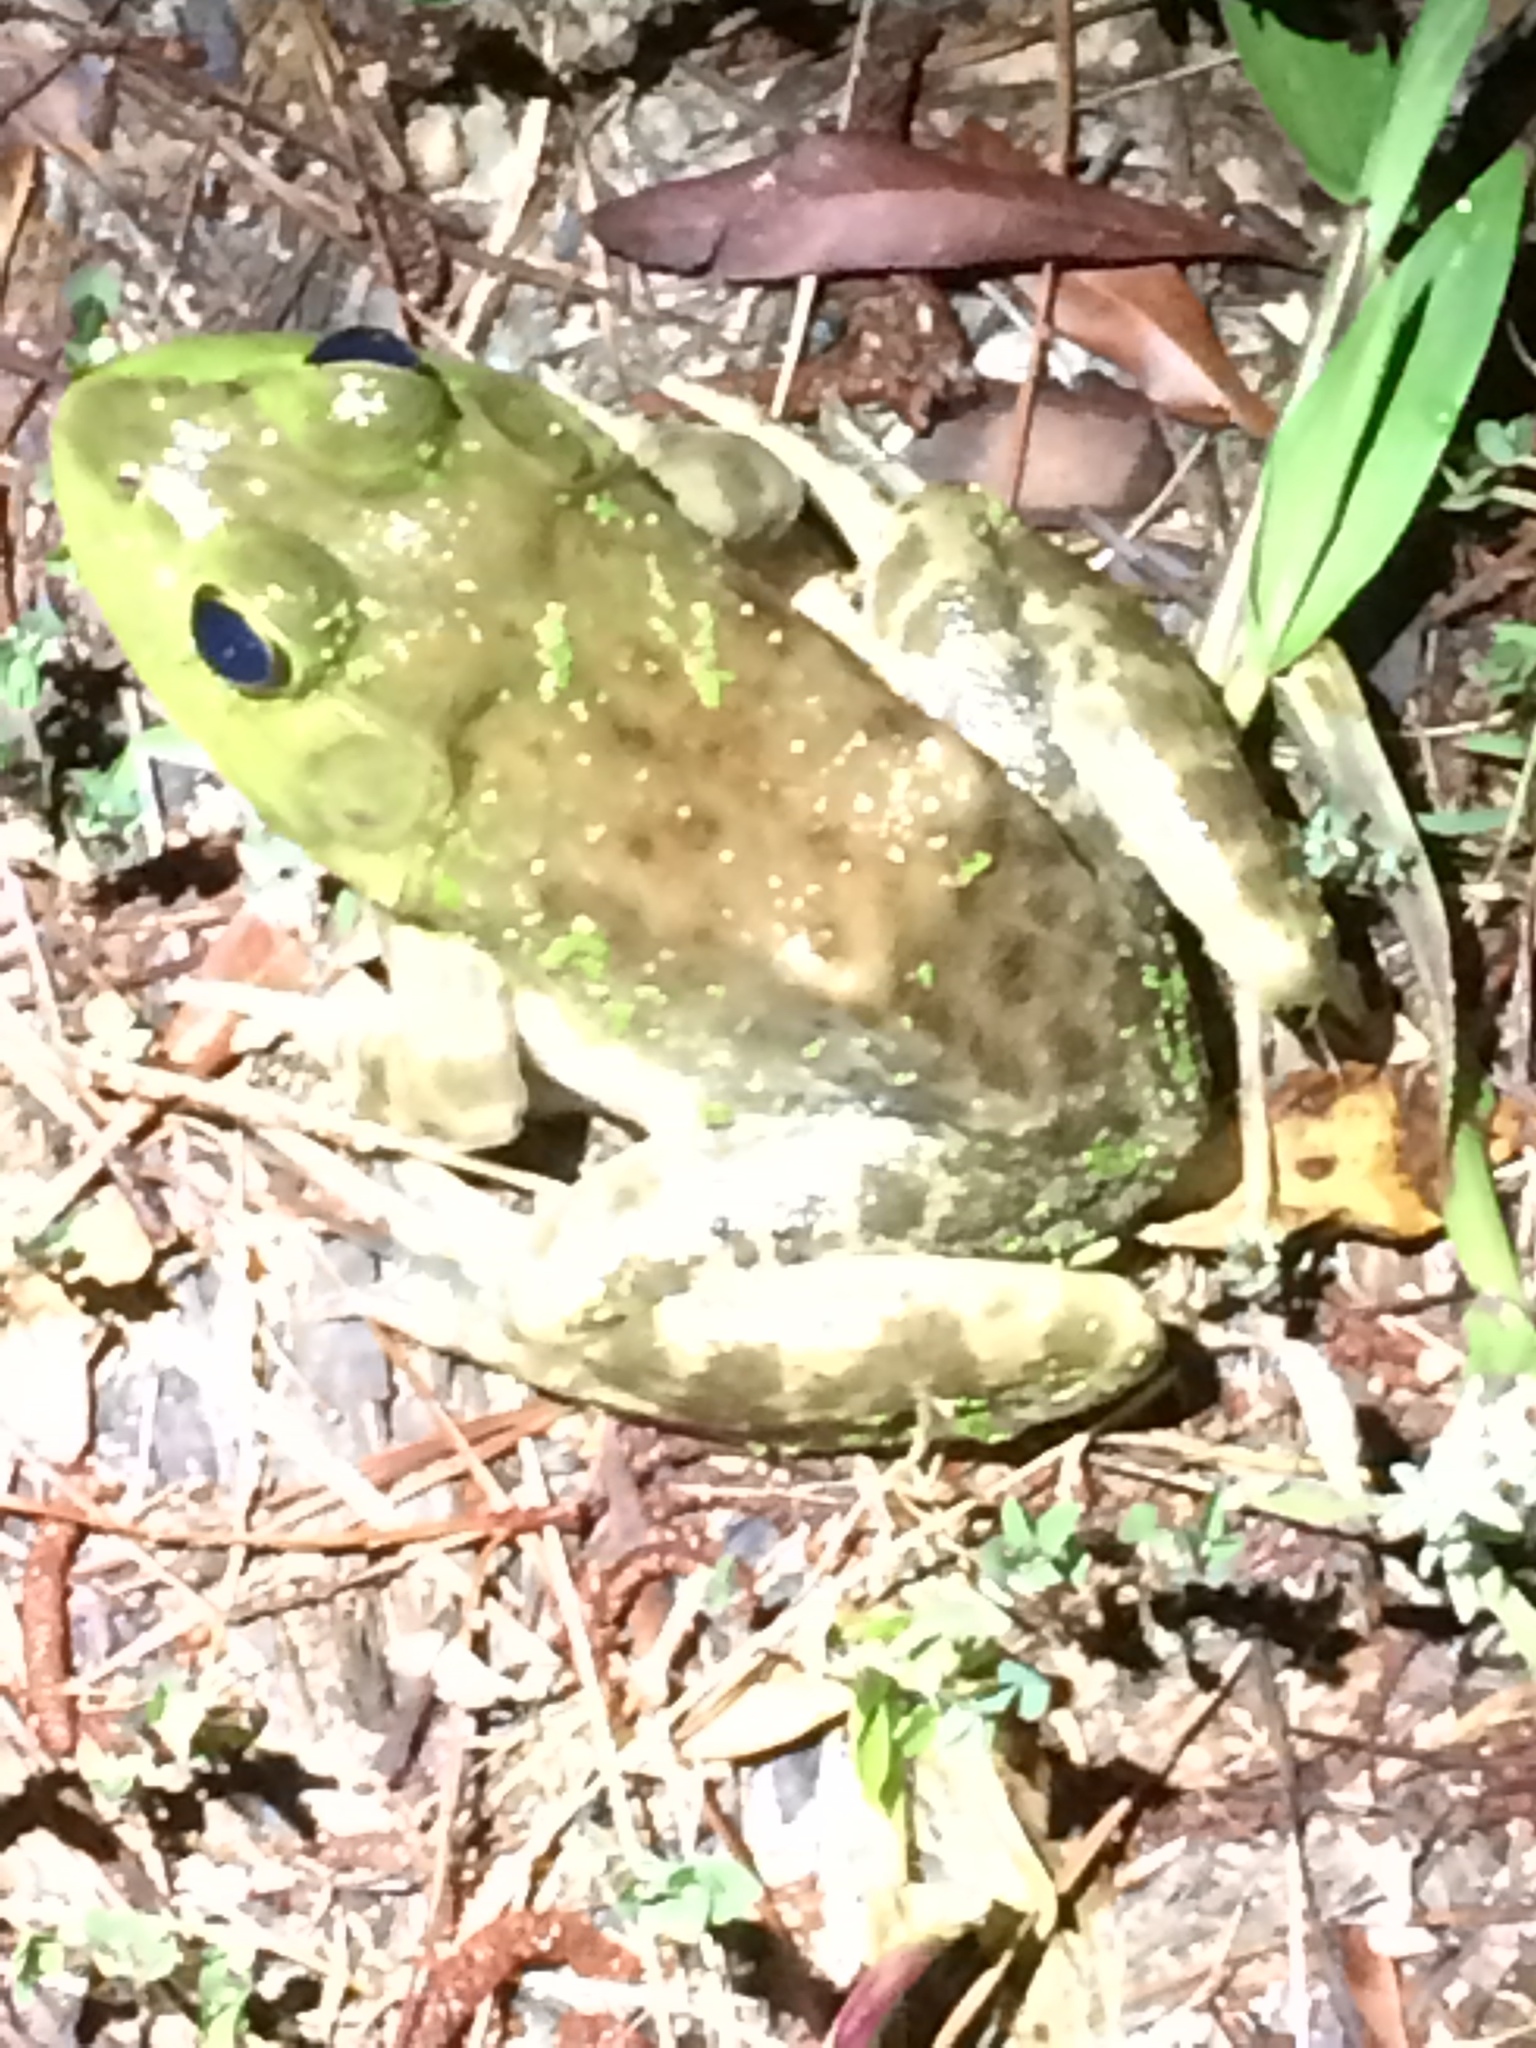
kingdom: Animalia
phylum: Chordata
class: Amphibia
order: Anura
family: Ranidae
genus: Lithobates
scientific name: Lithobates catesbeianus
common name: American bullfrog
